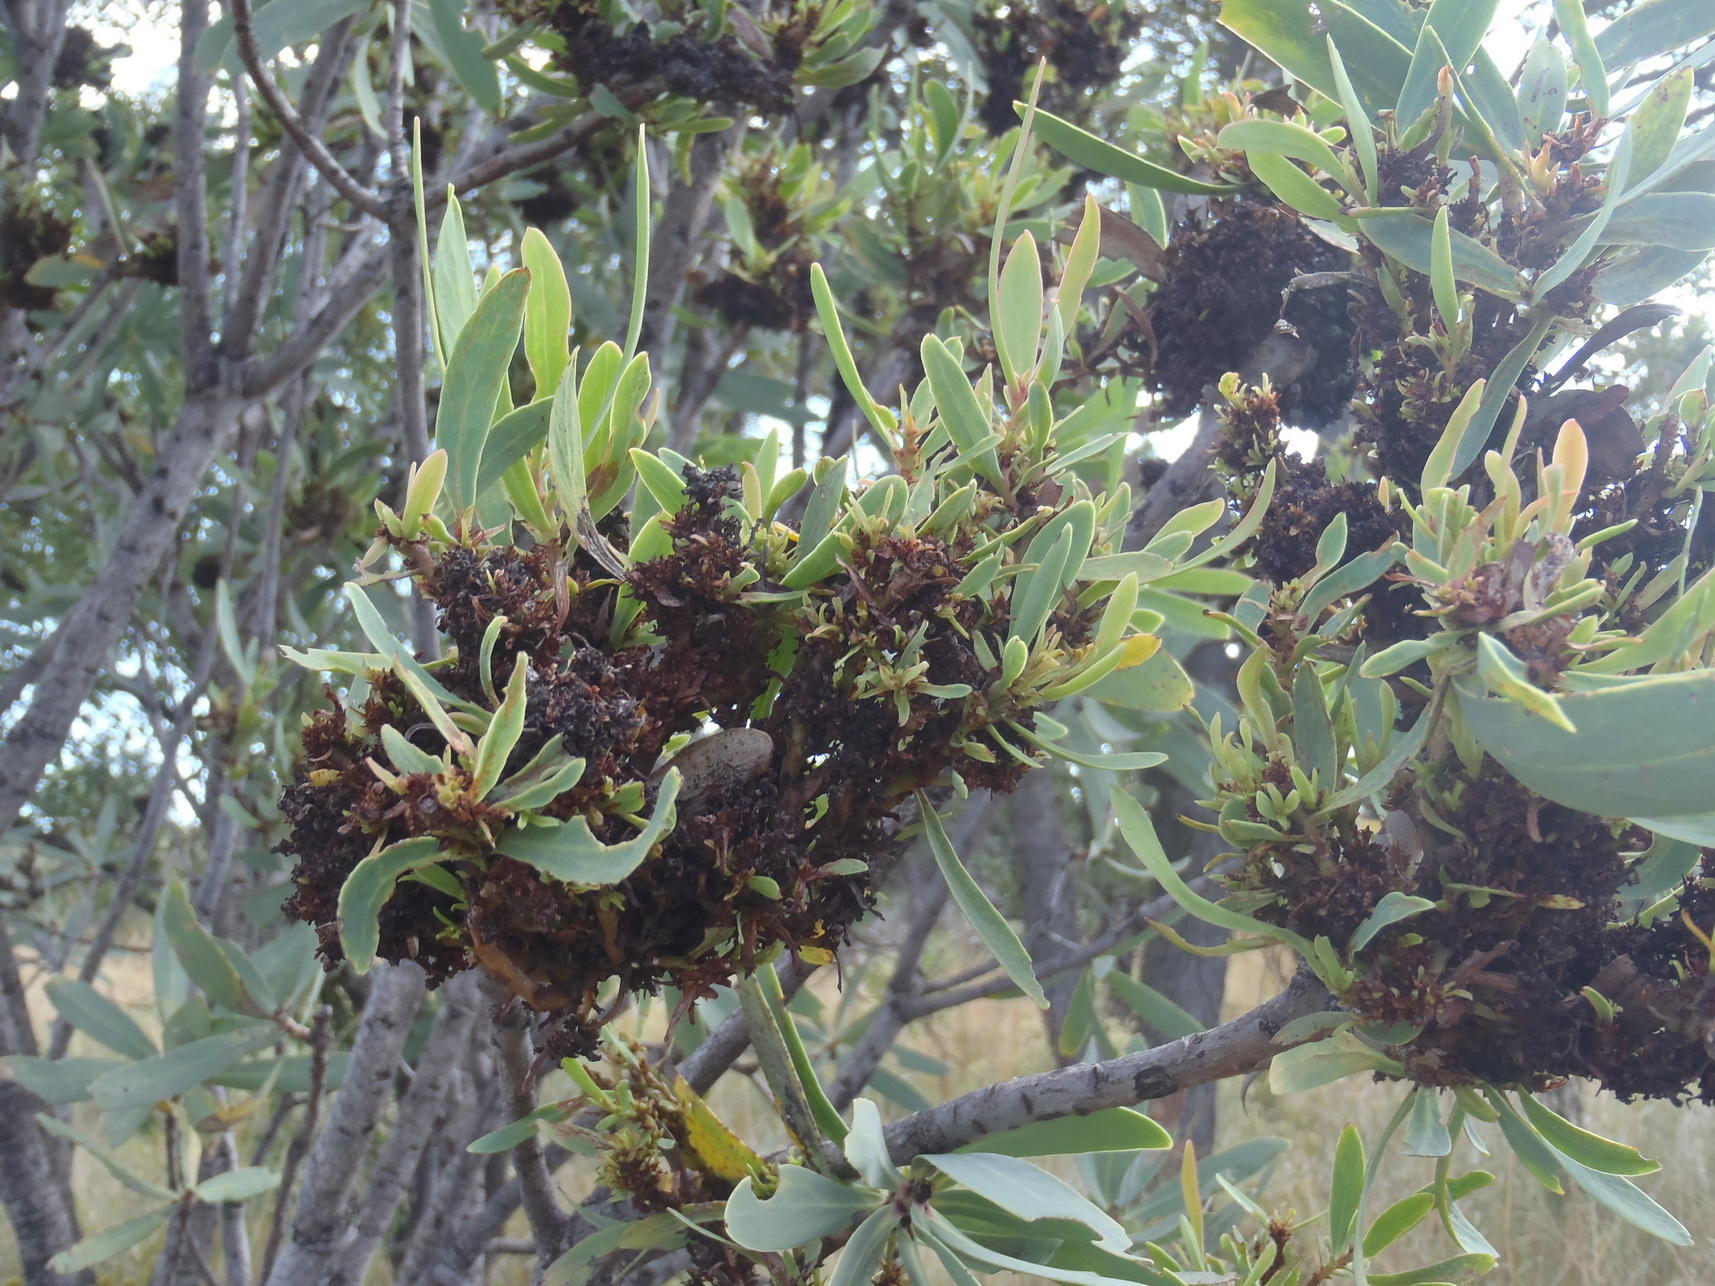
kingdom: Bacteria
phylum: Firmicutes
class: Bacilli
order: Acholeplasmatales
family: Acholeplasmataceae
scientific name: Acholeplasmataceae
